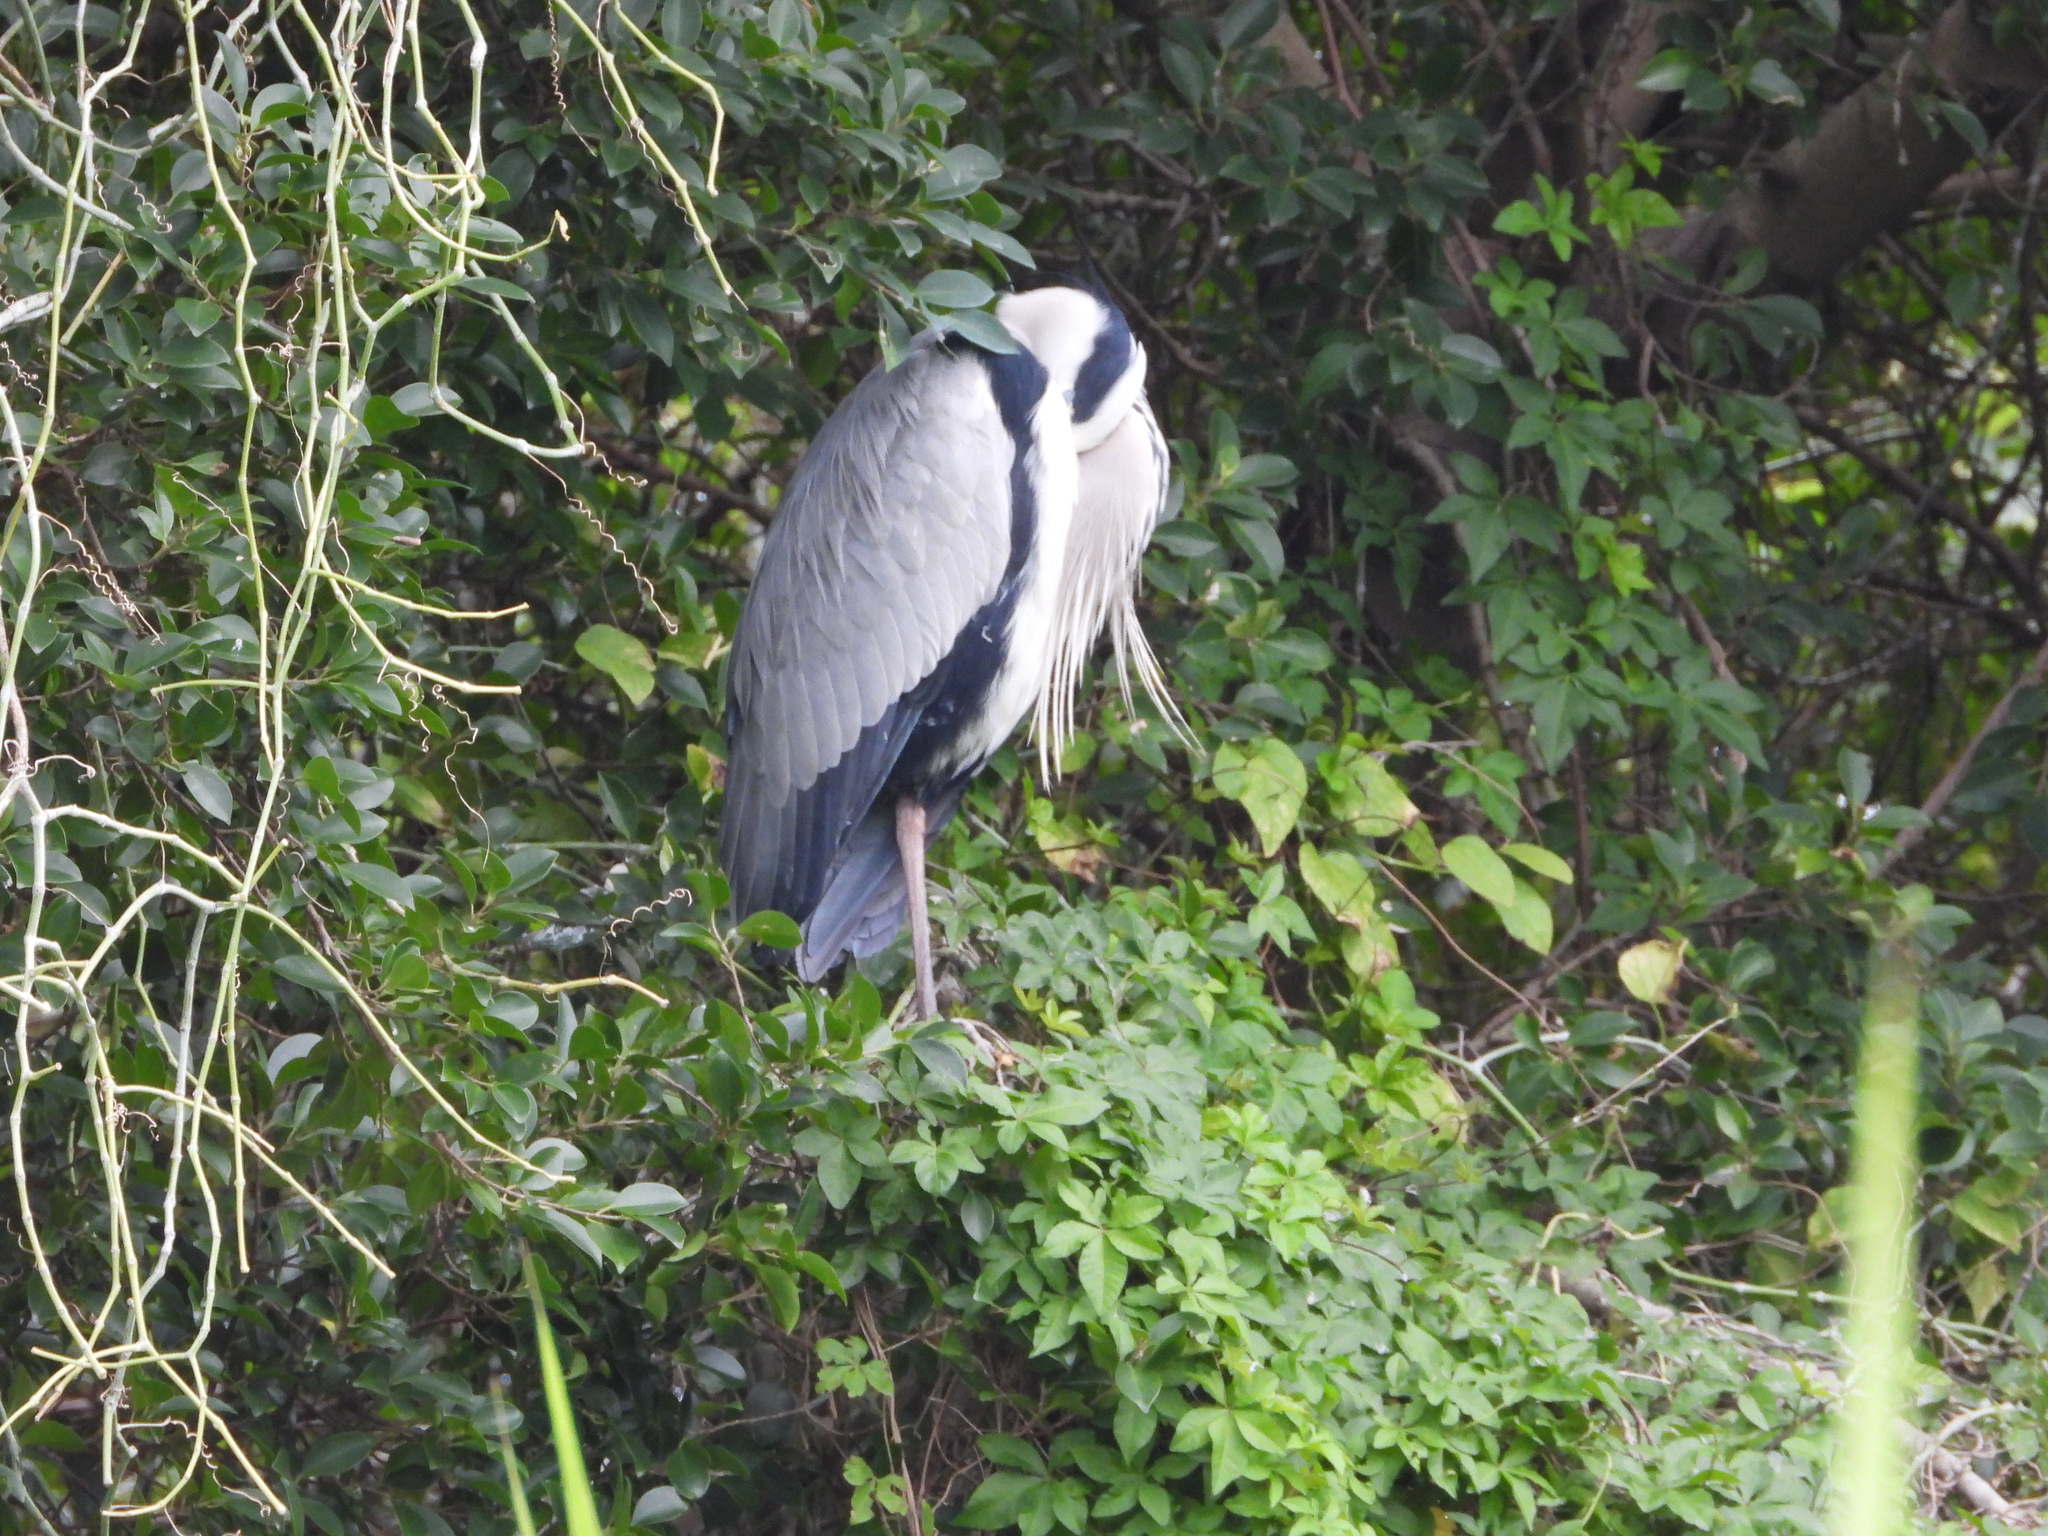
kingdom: Animalia
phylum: Chordata
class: Aves
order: Pelecaniformes
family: Ardeidae
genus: Ardea
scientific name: Ardea cinerea
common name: Grey heron
